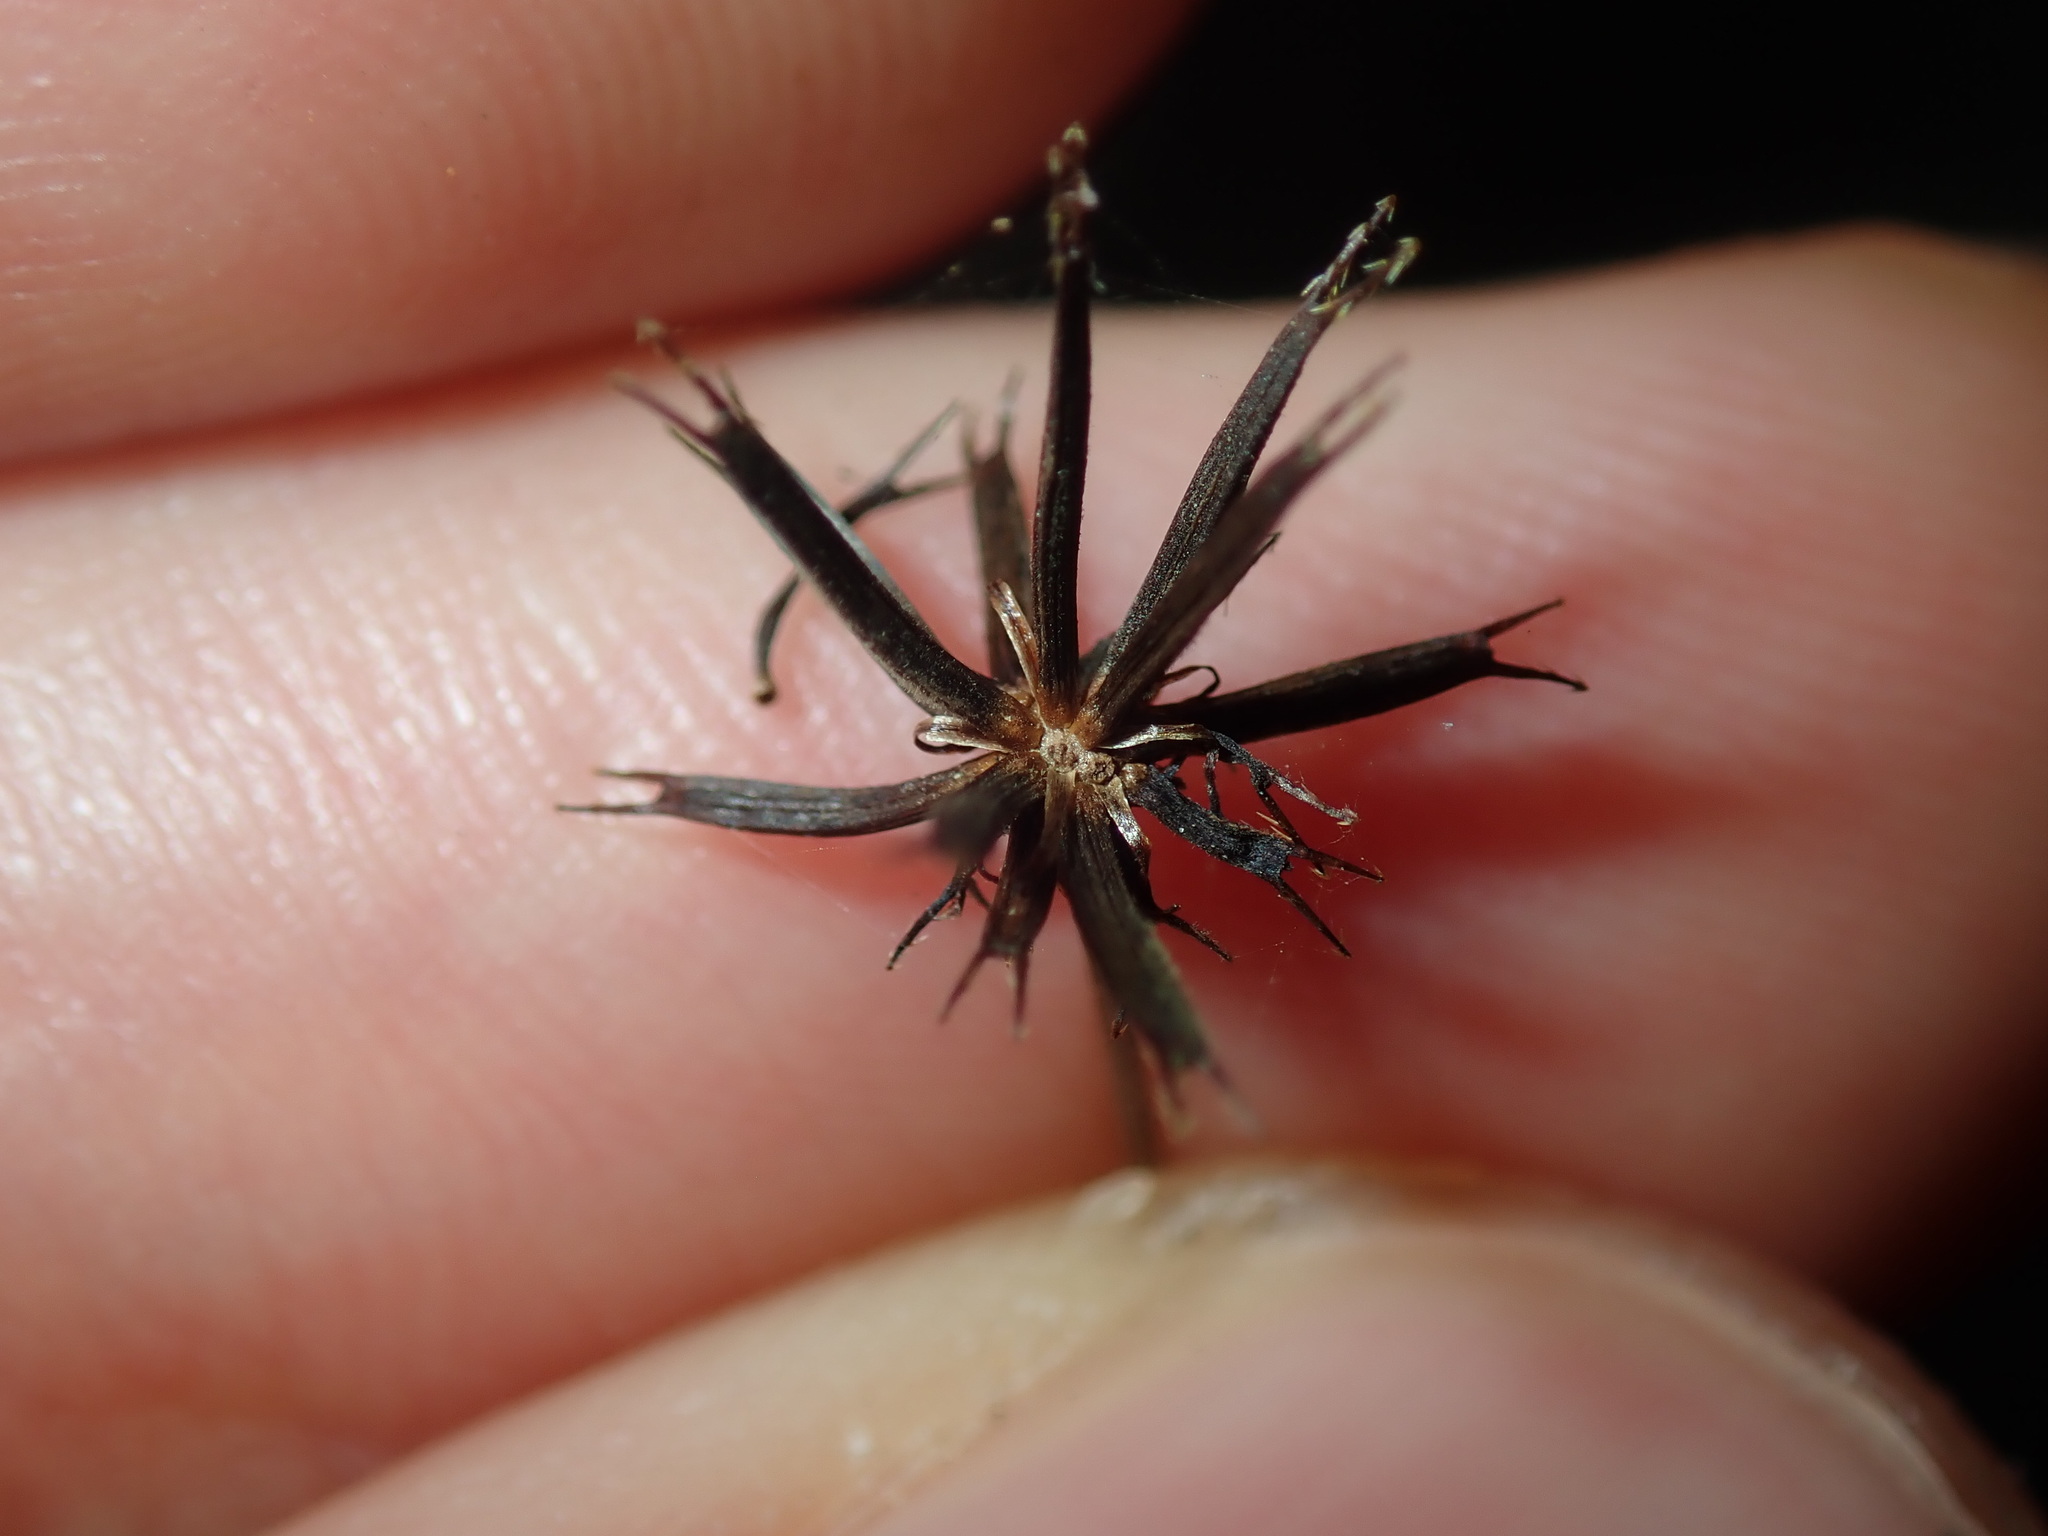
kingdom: Plantae
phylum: Tracheophyta
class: Magnoliopsida
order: Asterales
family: Asteraceae
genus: Glossocardia
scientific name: Glossocardia bidens
